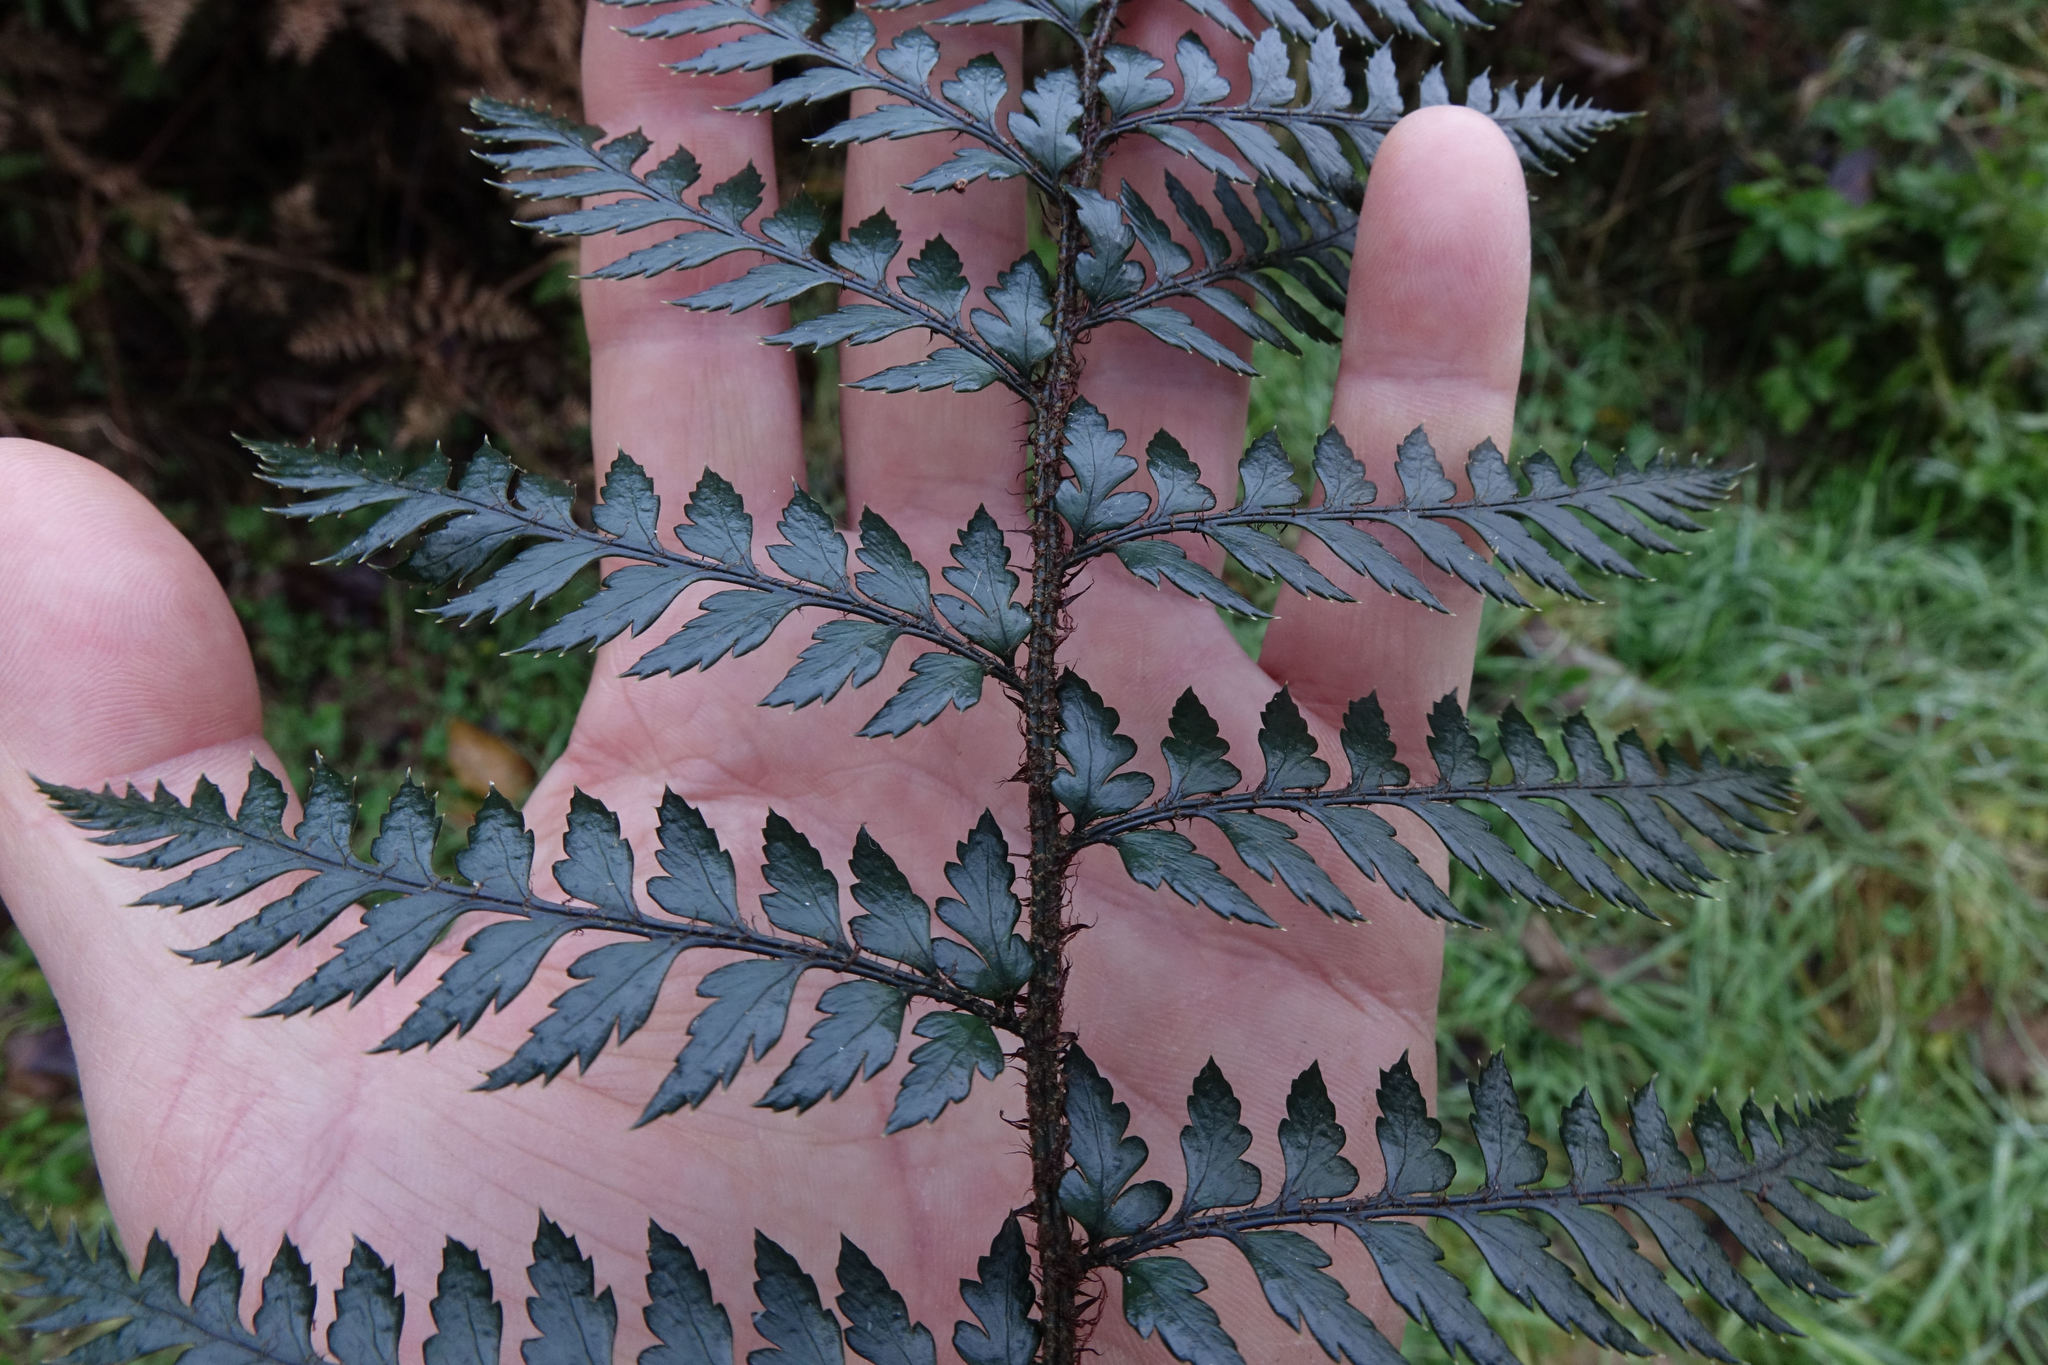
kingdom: Plantae
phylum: Tracheophyta
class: Polypodiopsida
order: Polypodiales
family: Dryopteridaceae
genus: Polystichum
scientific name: Polystichum neozelandicum
